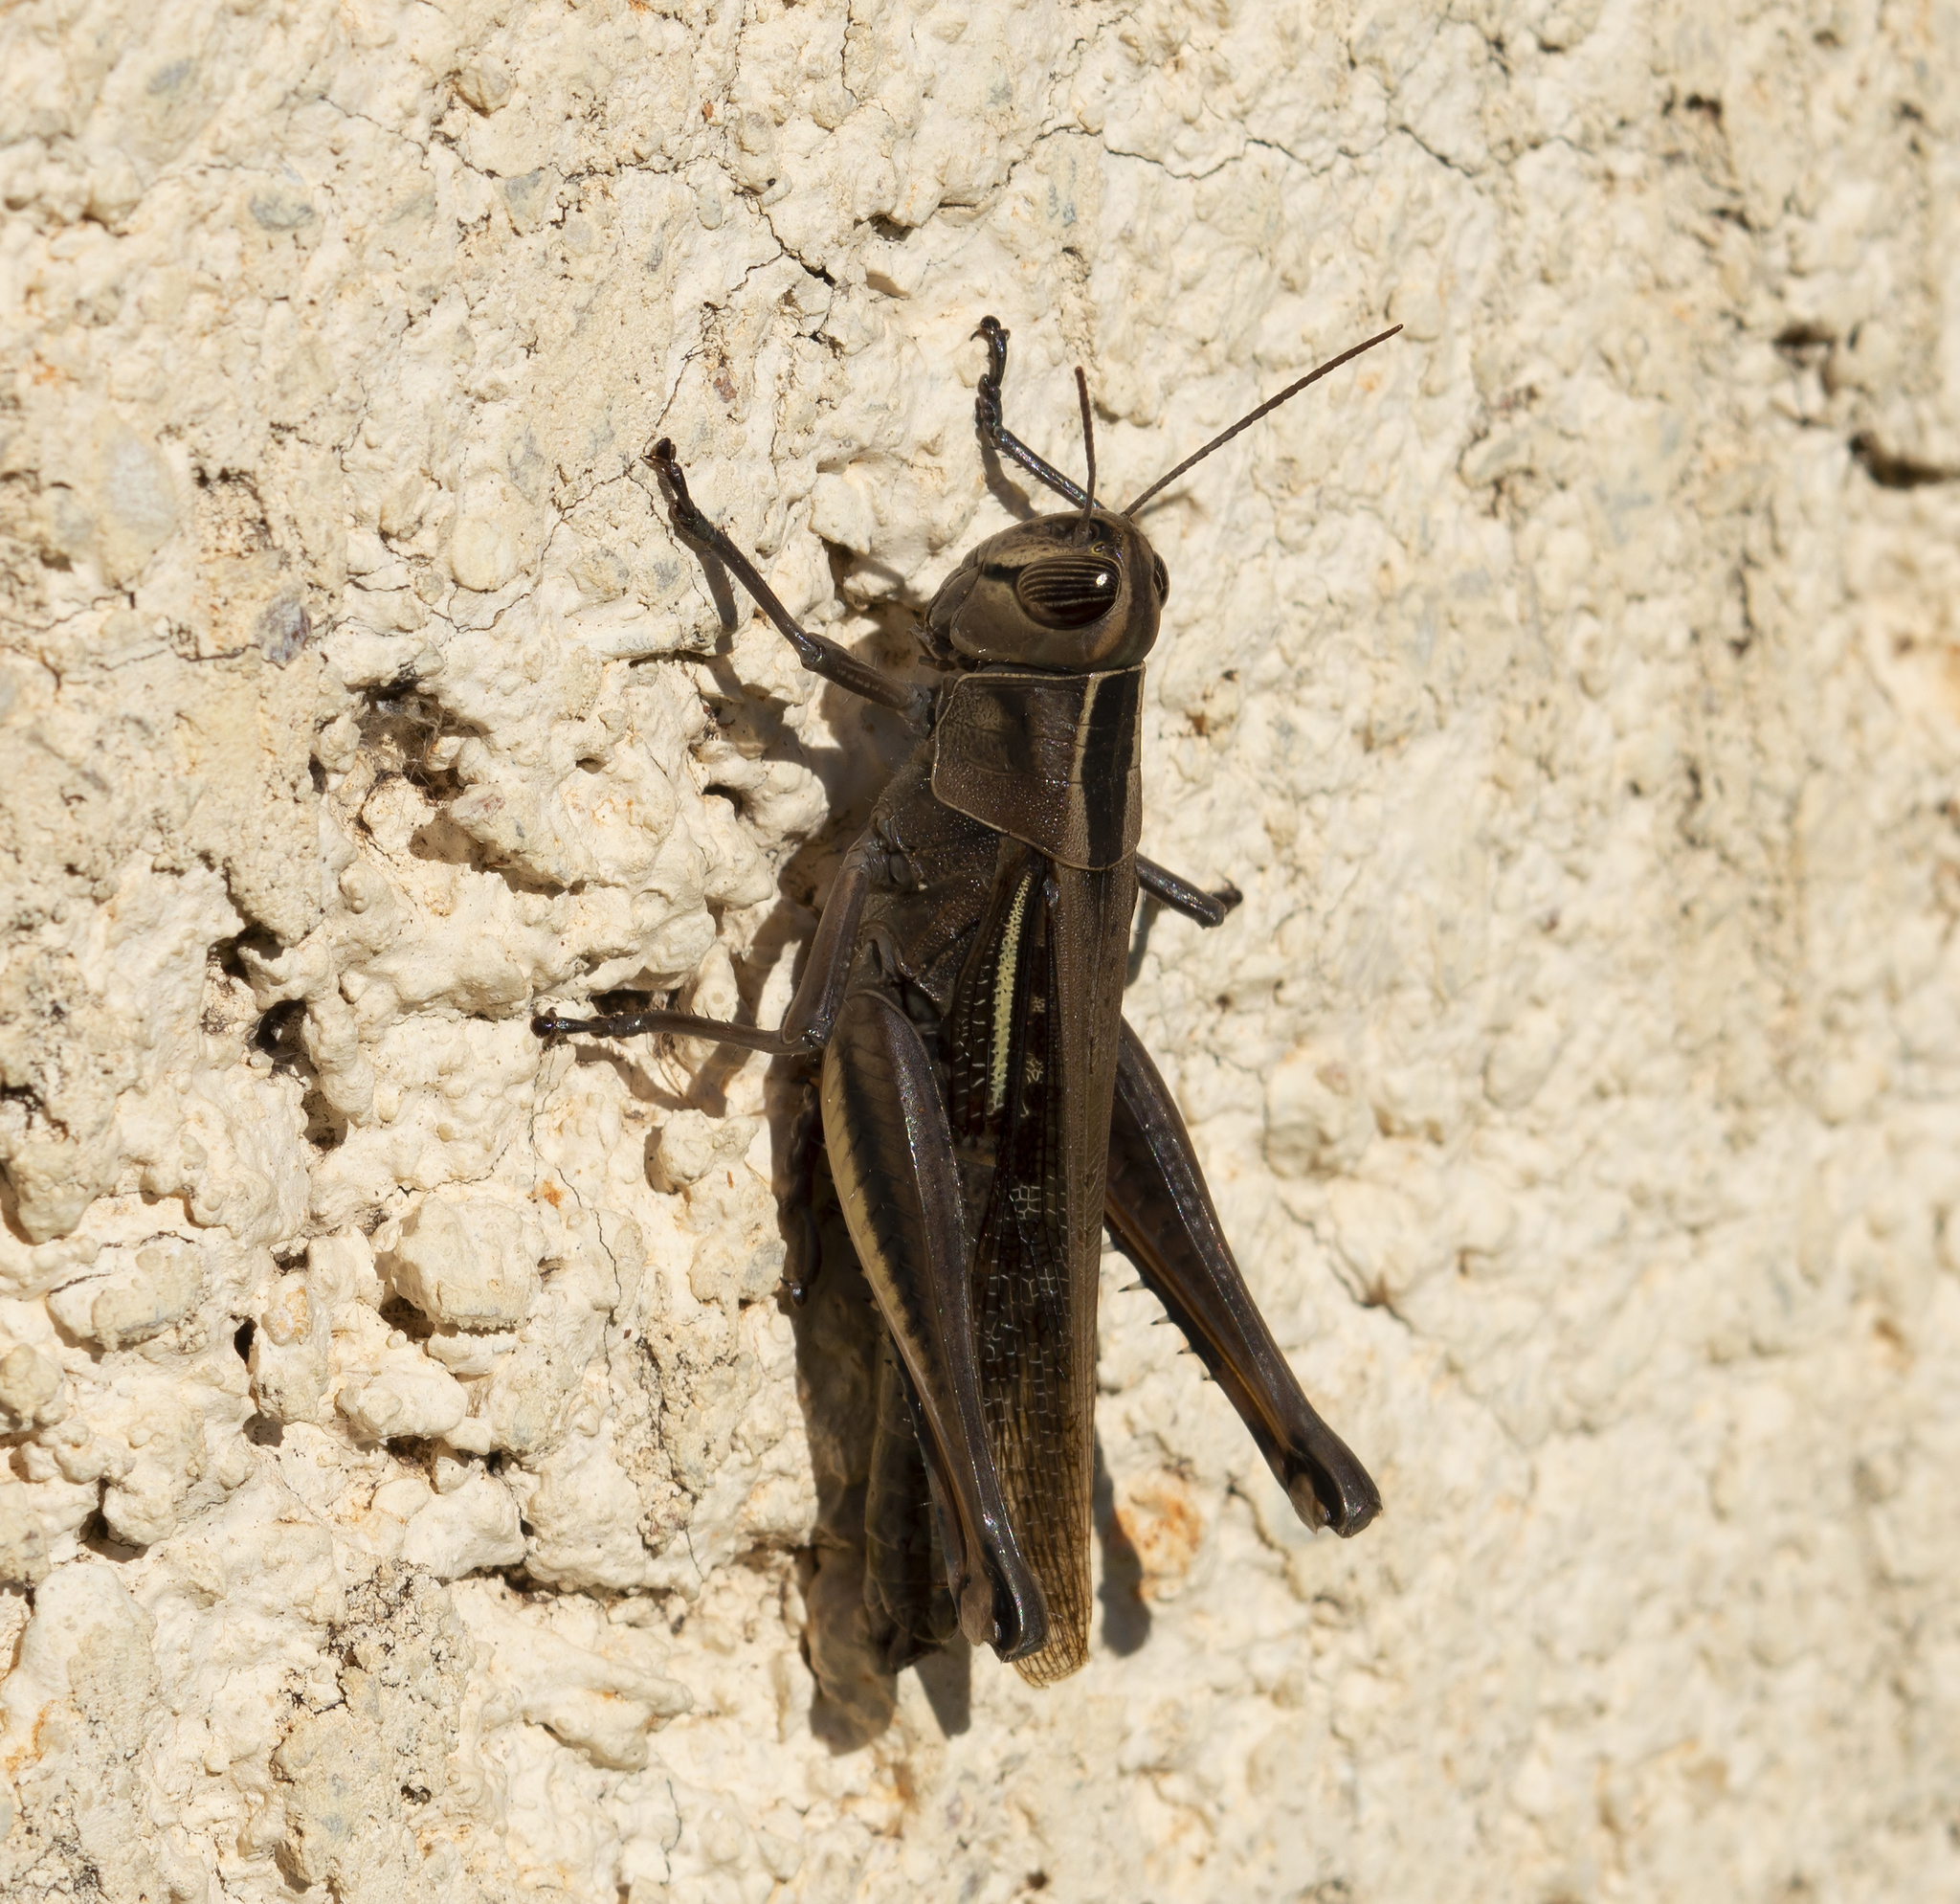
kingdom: Animalia
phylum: Arthropoda
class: Insecta
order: Orthoptera
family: Acrididae
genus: Eyprepocnemis
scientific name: Eyprepocnemis plorans
